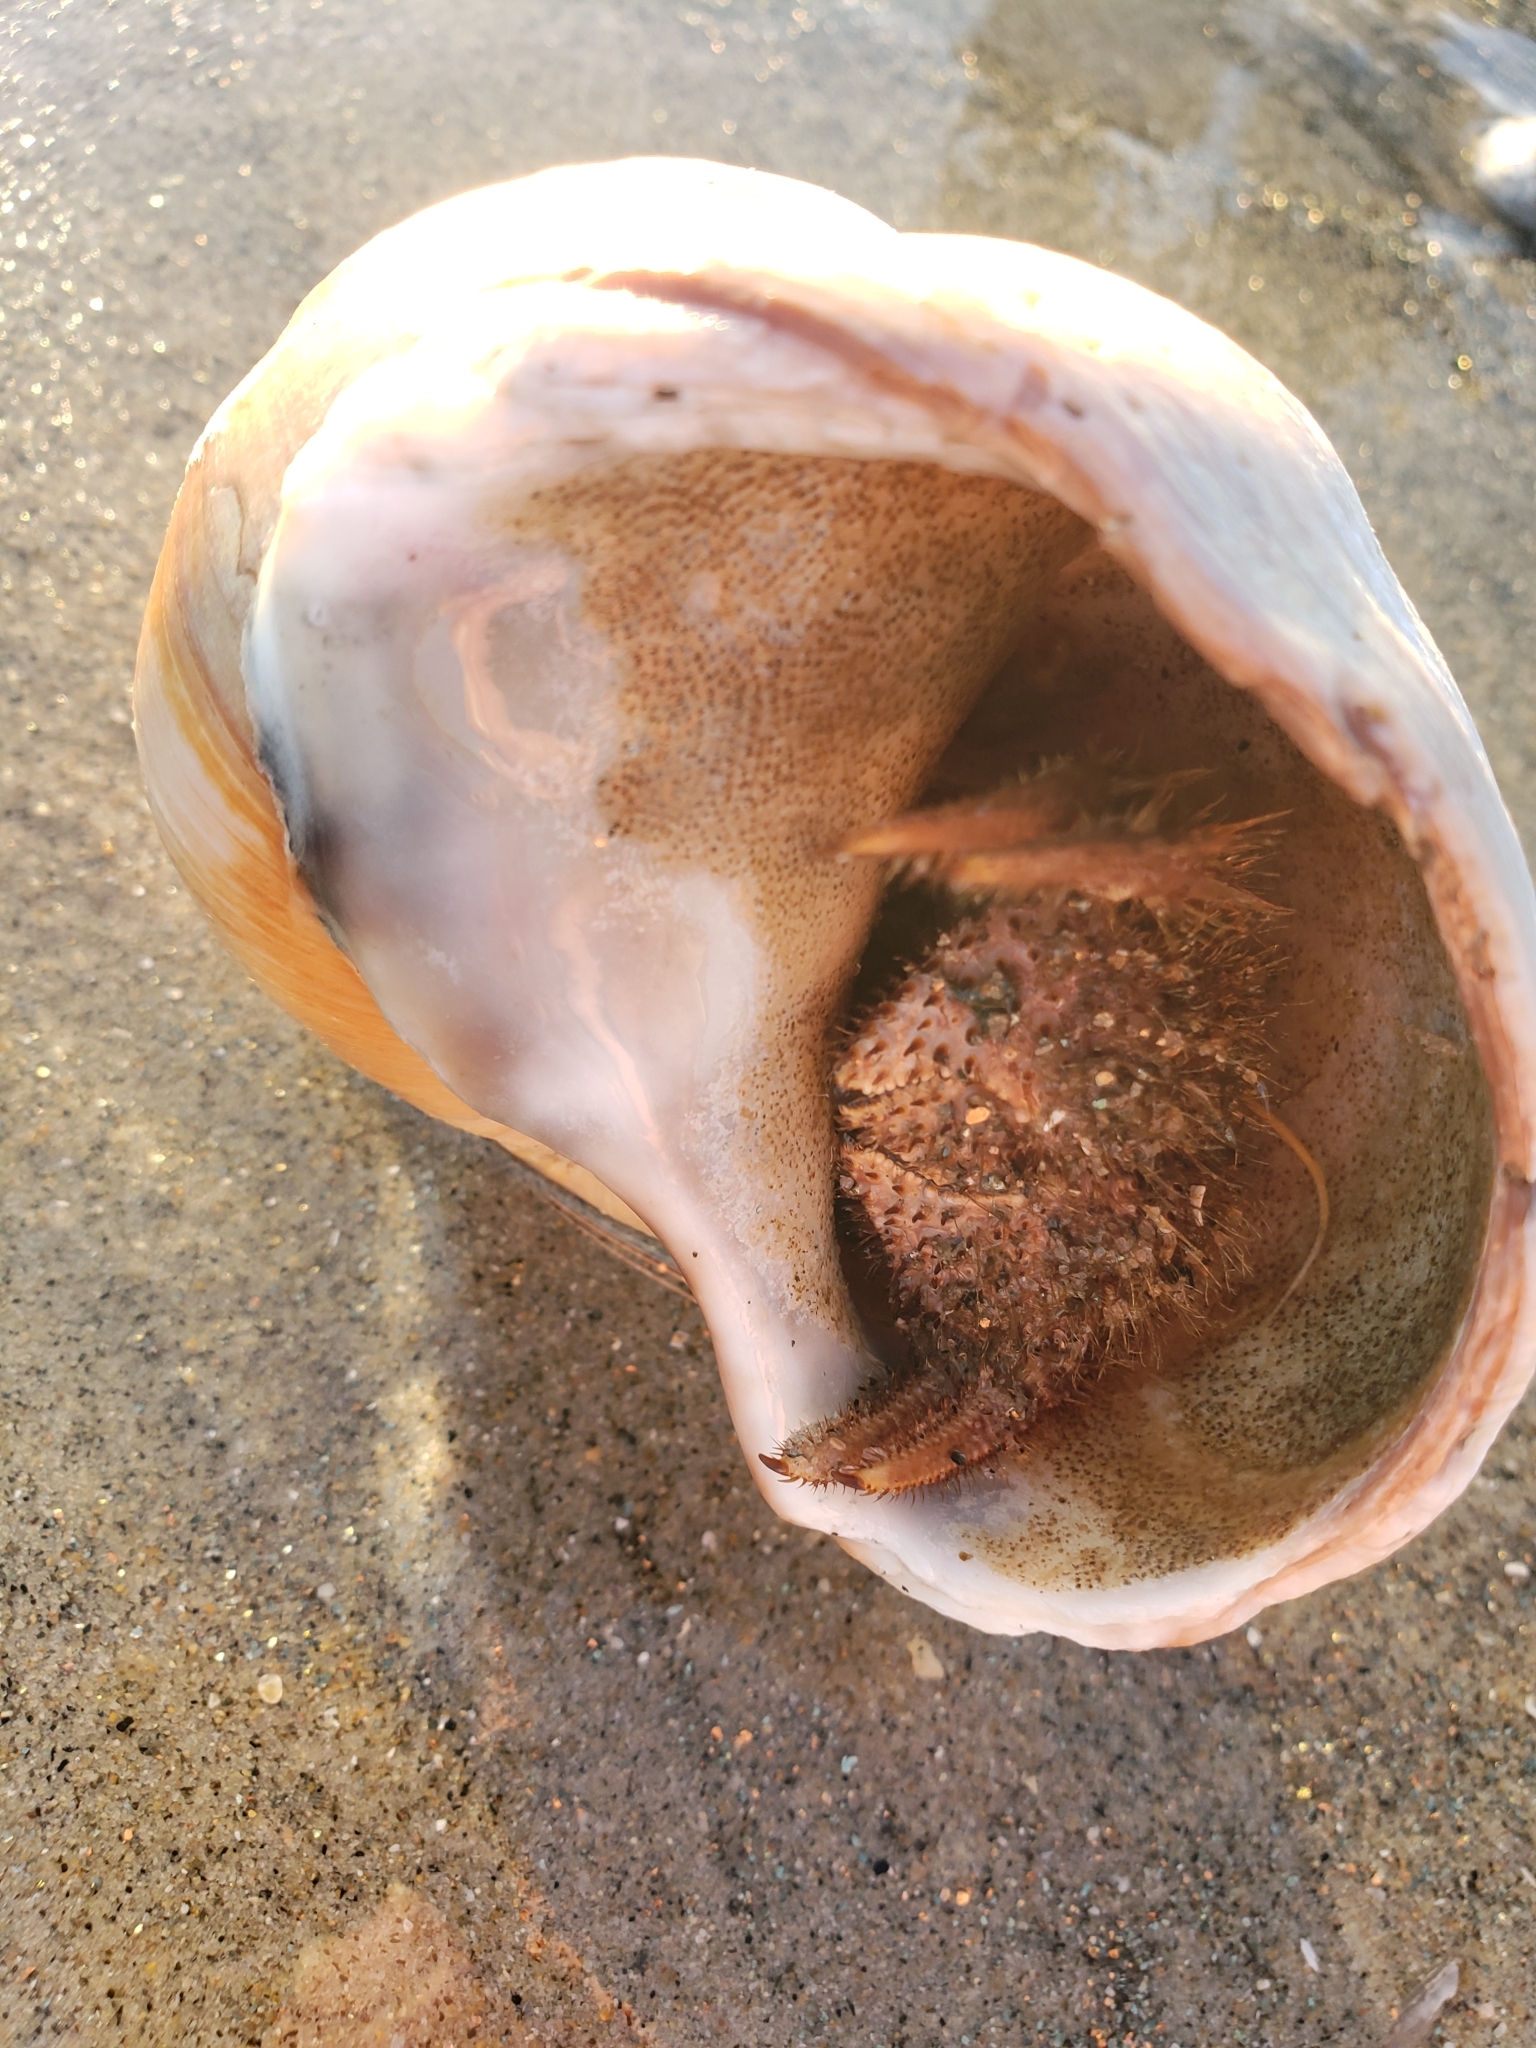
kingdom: Animalia
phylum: Mollusca
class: Gastropoda
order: Littorinimorpha
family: Naticidae
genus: Neverita
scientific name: Neverita lewisii
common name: Lewis' moonsnail
